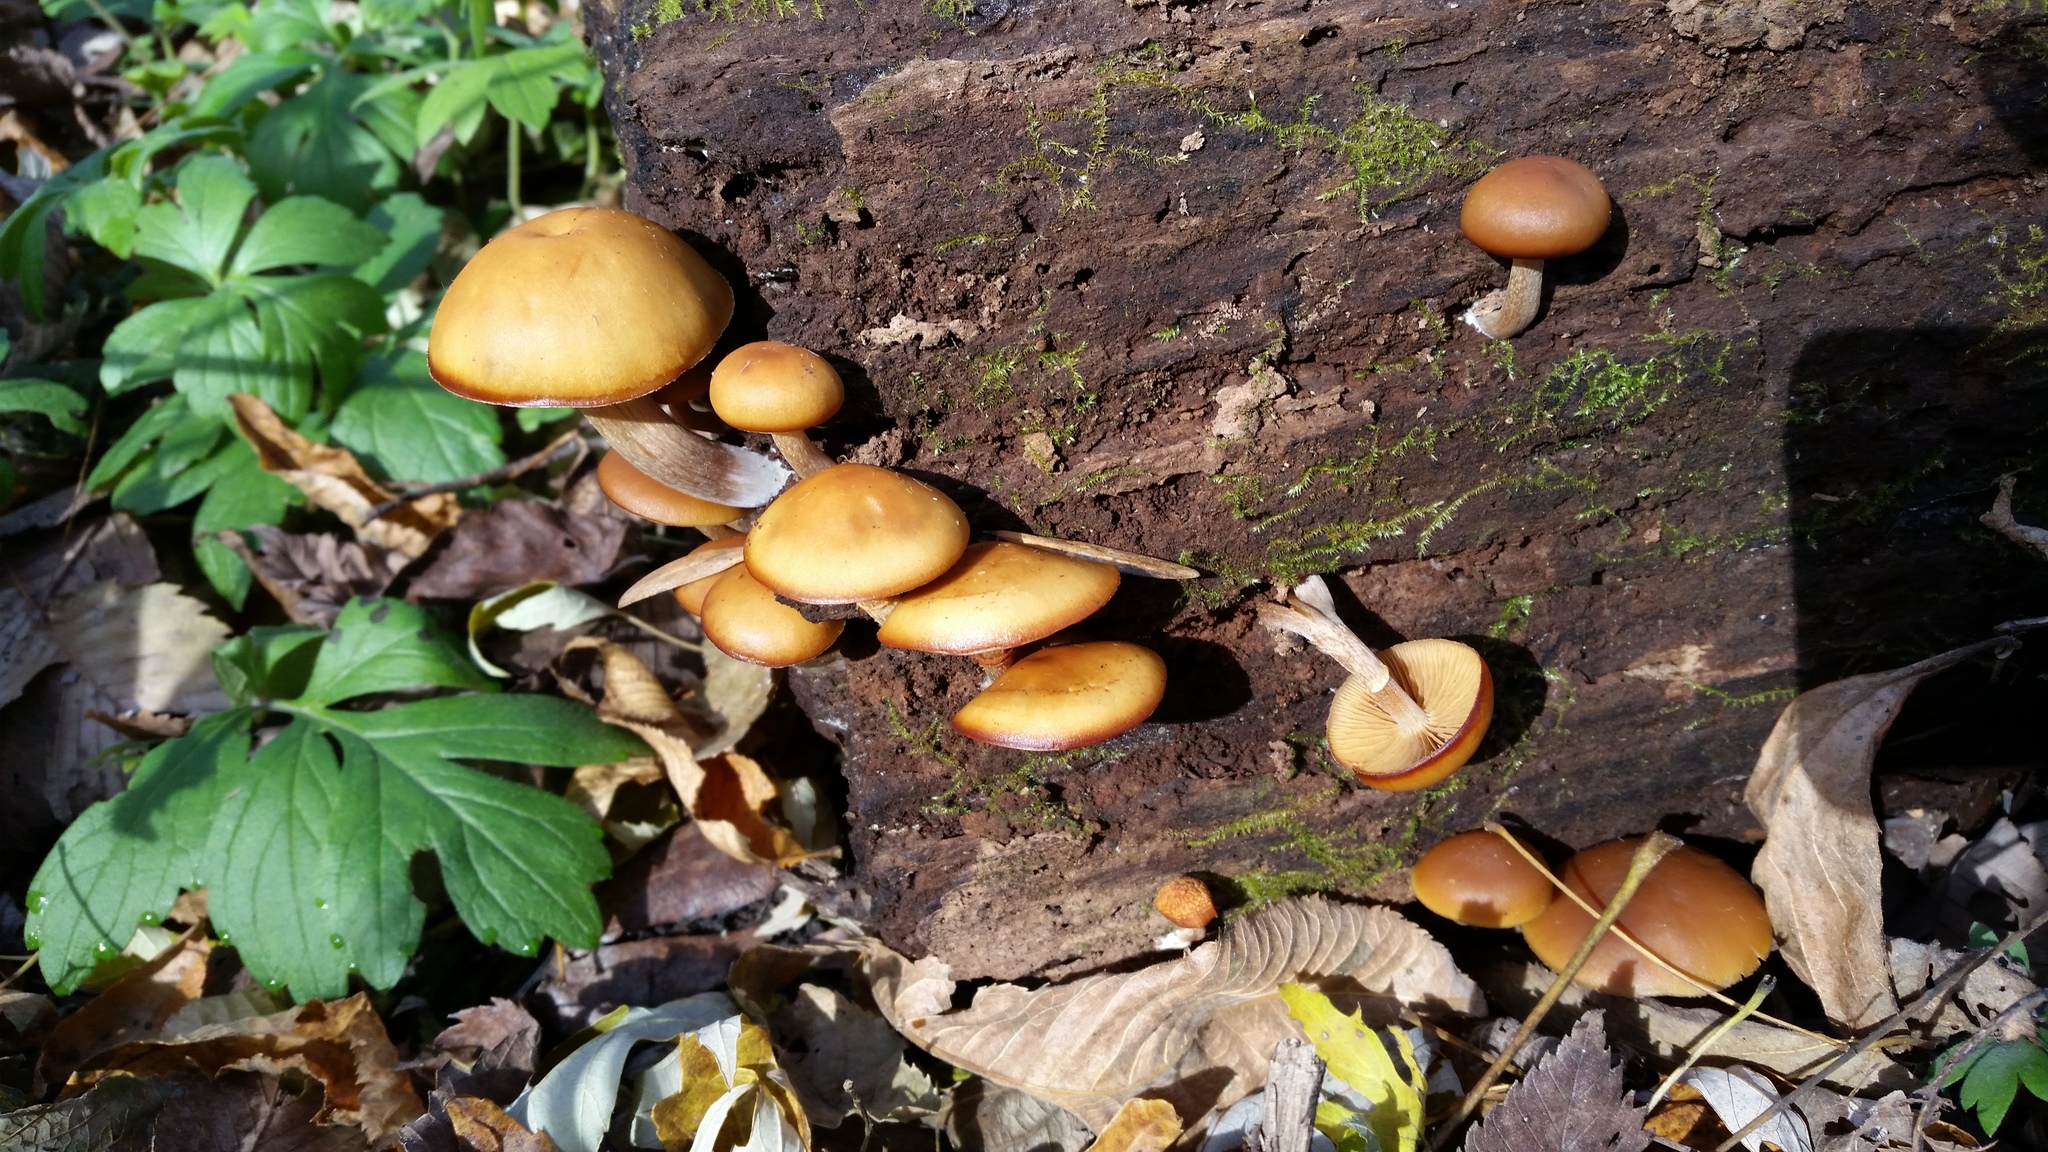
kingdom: Fungi
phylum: Basidiomycota
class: Agaricomycetes
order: Agaricales
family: Hymenogastraceae
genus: Galerina
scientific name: Galerina marginata
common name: Funeral bell
